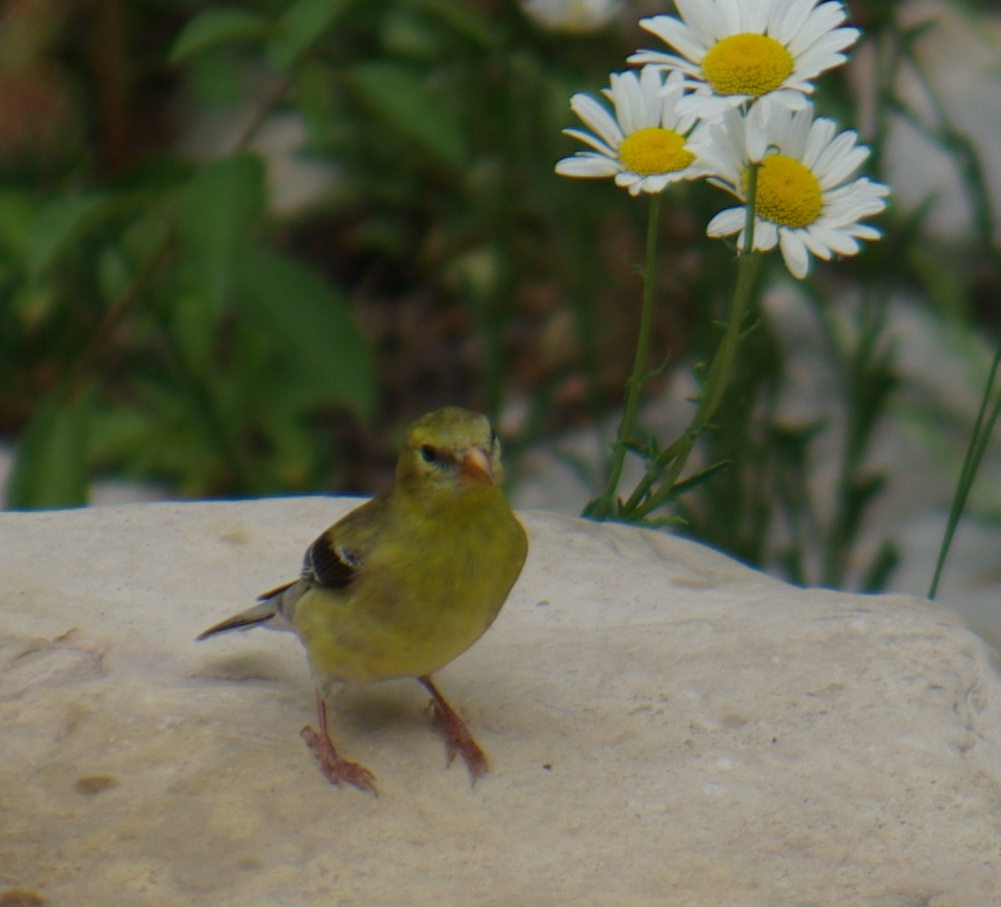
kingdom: Animalia
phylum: Chordata
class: Aves
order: Passeriformes
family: Fringillidae
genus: Spinus
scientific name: Spinus tristis
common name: American goldfinch
